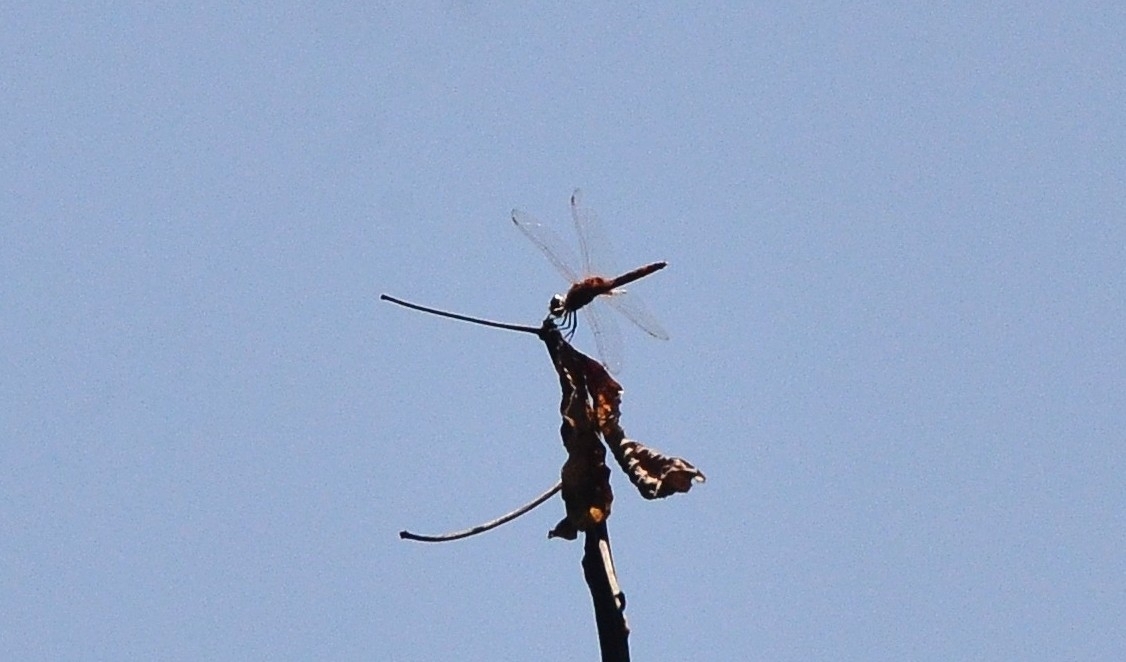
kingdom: Animalia
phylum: Arthropoda
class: Insecta
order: Odonata
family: Libellulidae
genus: Urothemis
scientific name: Urothemis signata
